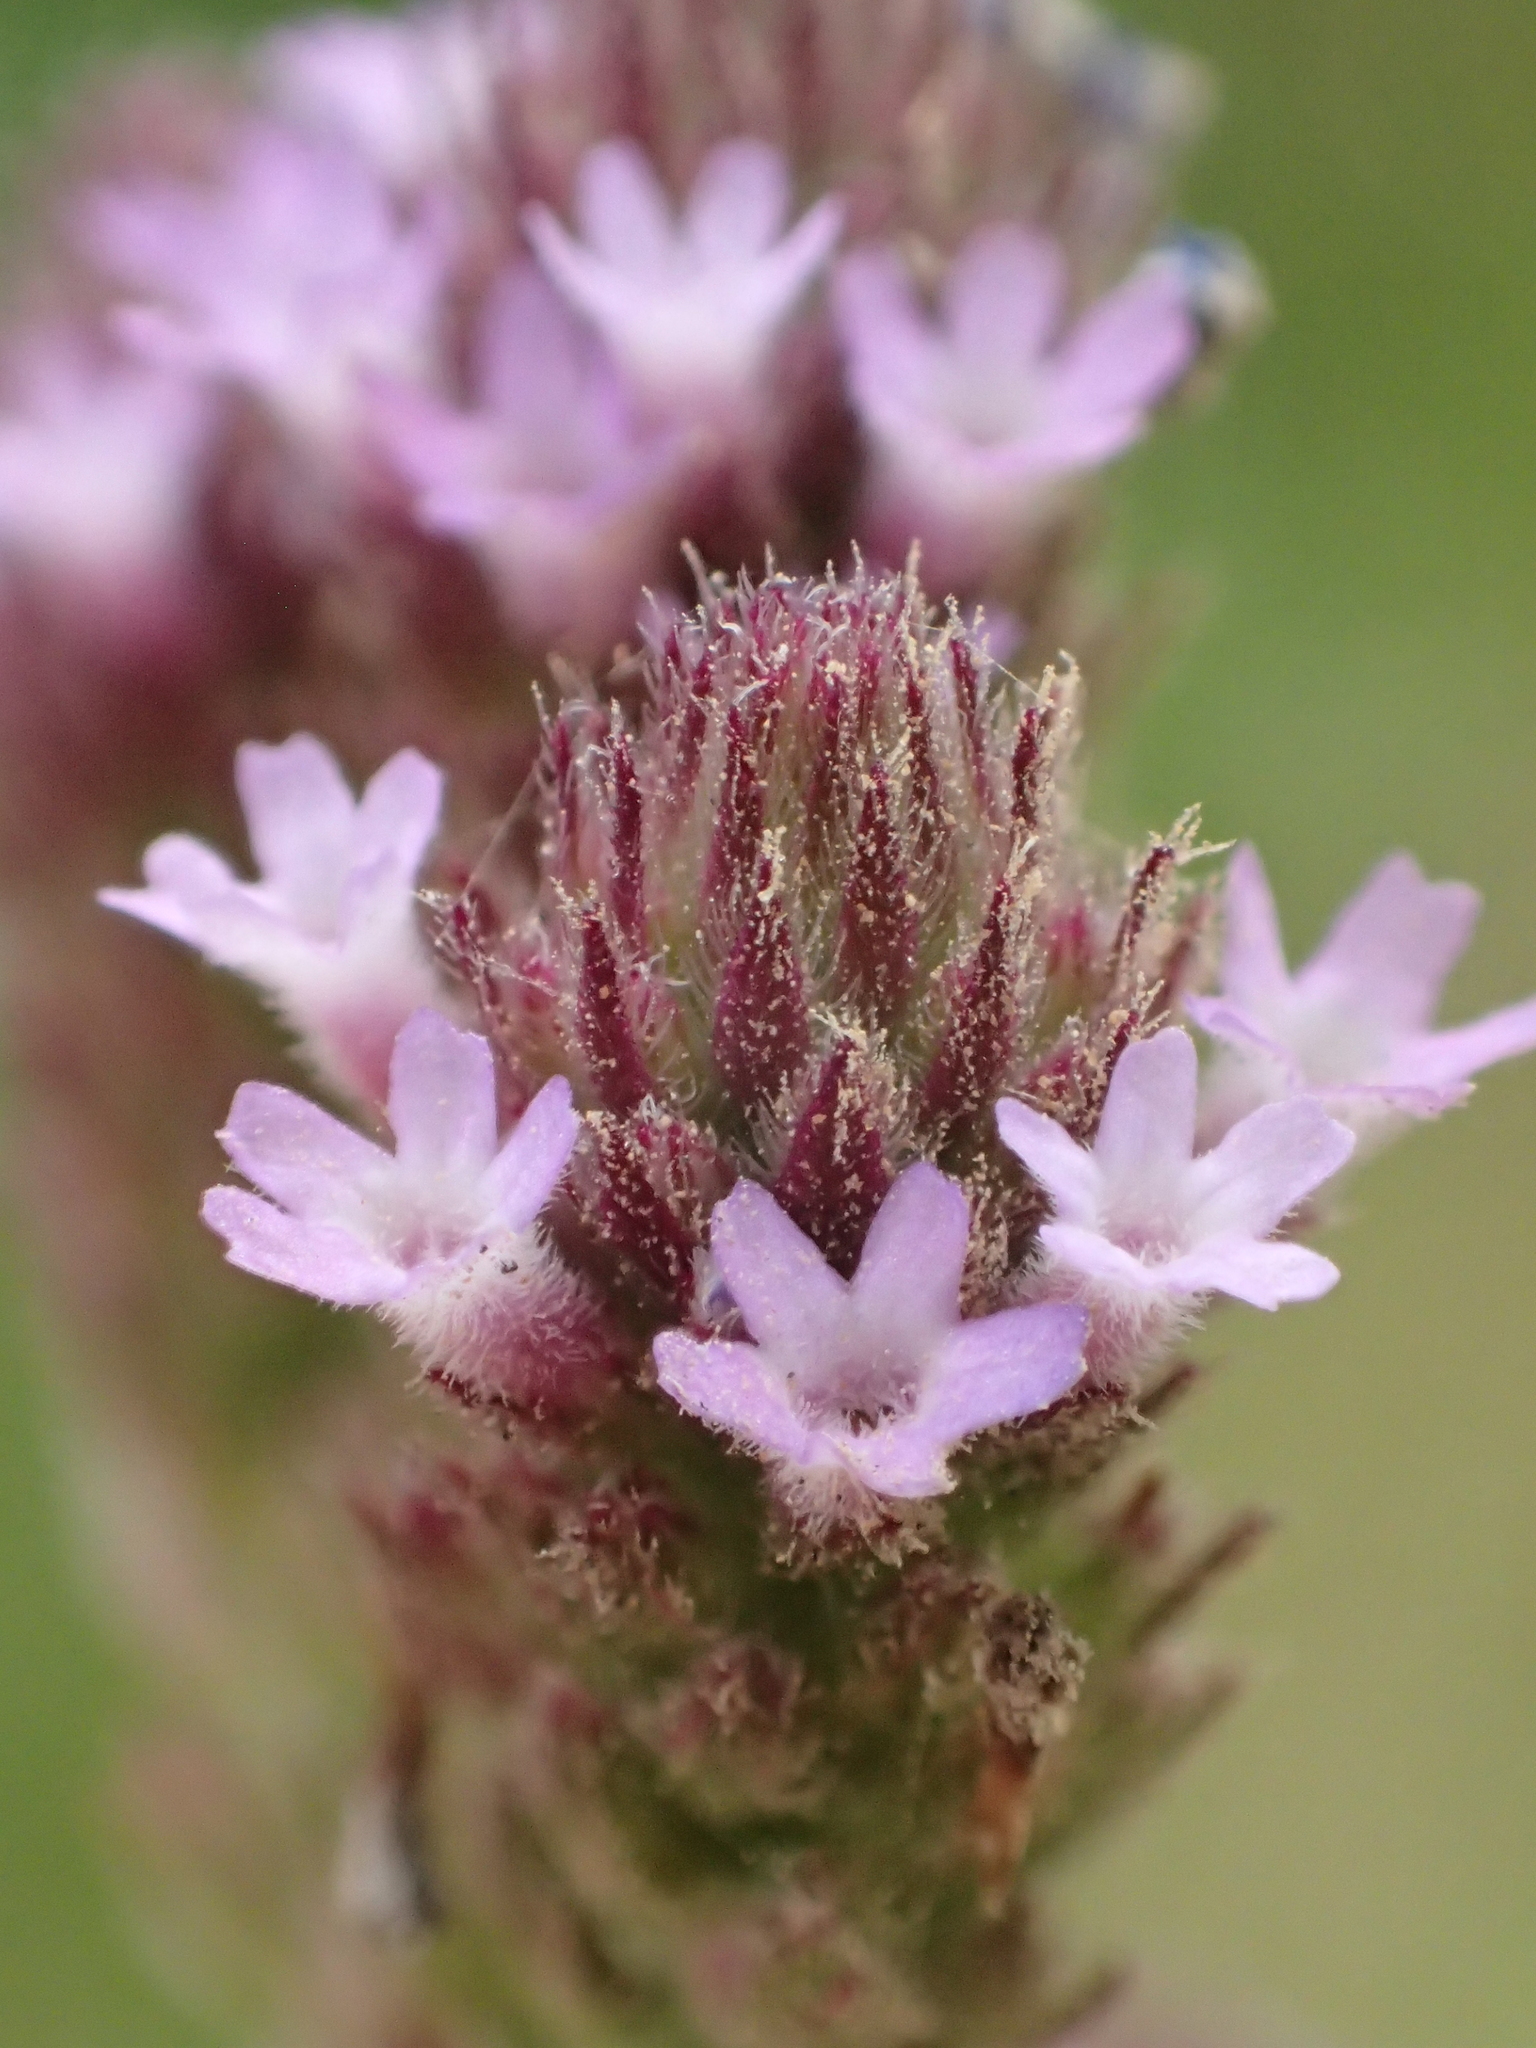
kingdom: Plantae
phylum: Tracheophyta
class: Magnoliopsida
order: Lamiales
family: Verbenaceae
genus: Verbena
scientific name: Verbena incompta
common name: Purpletop vervain
